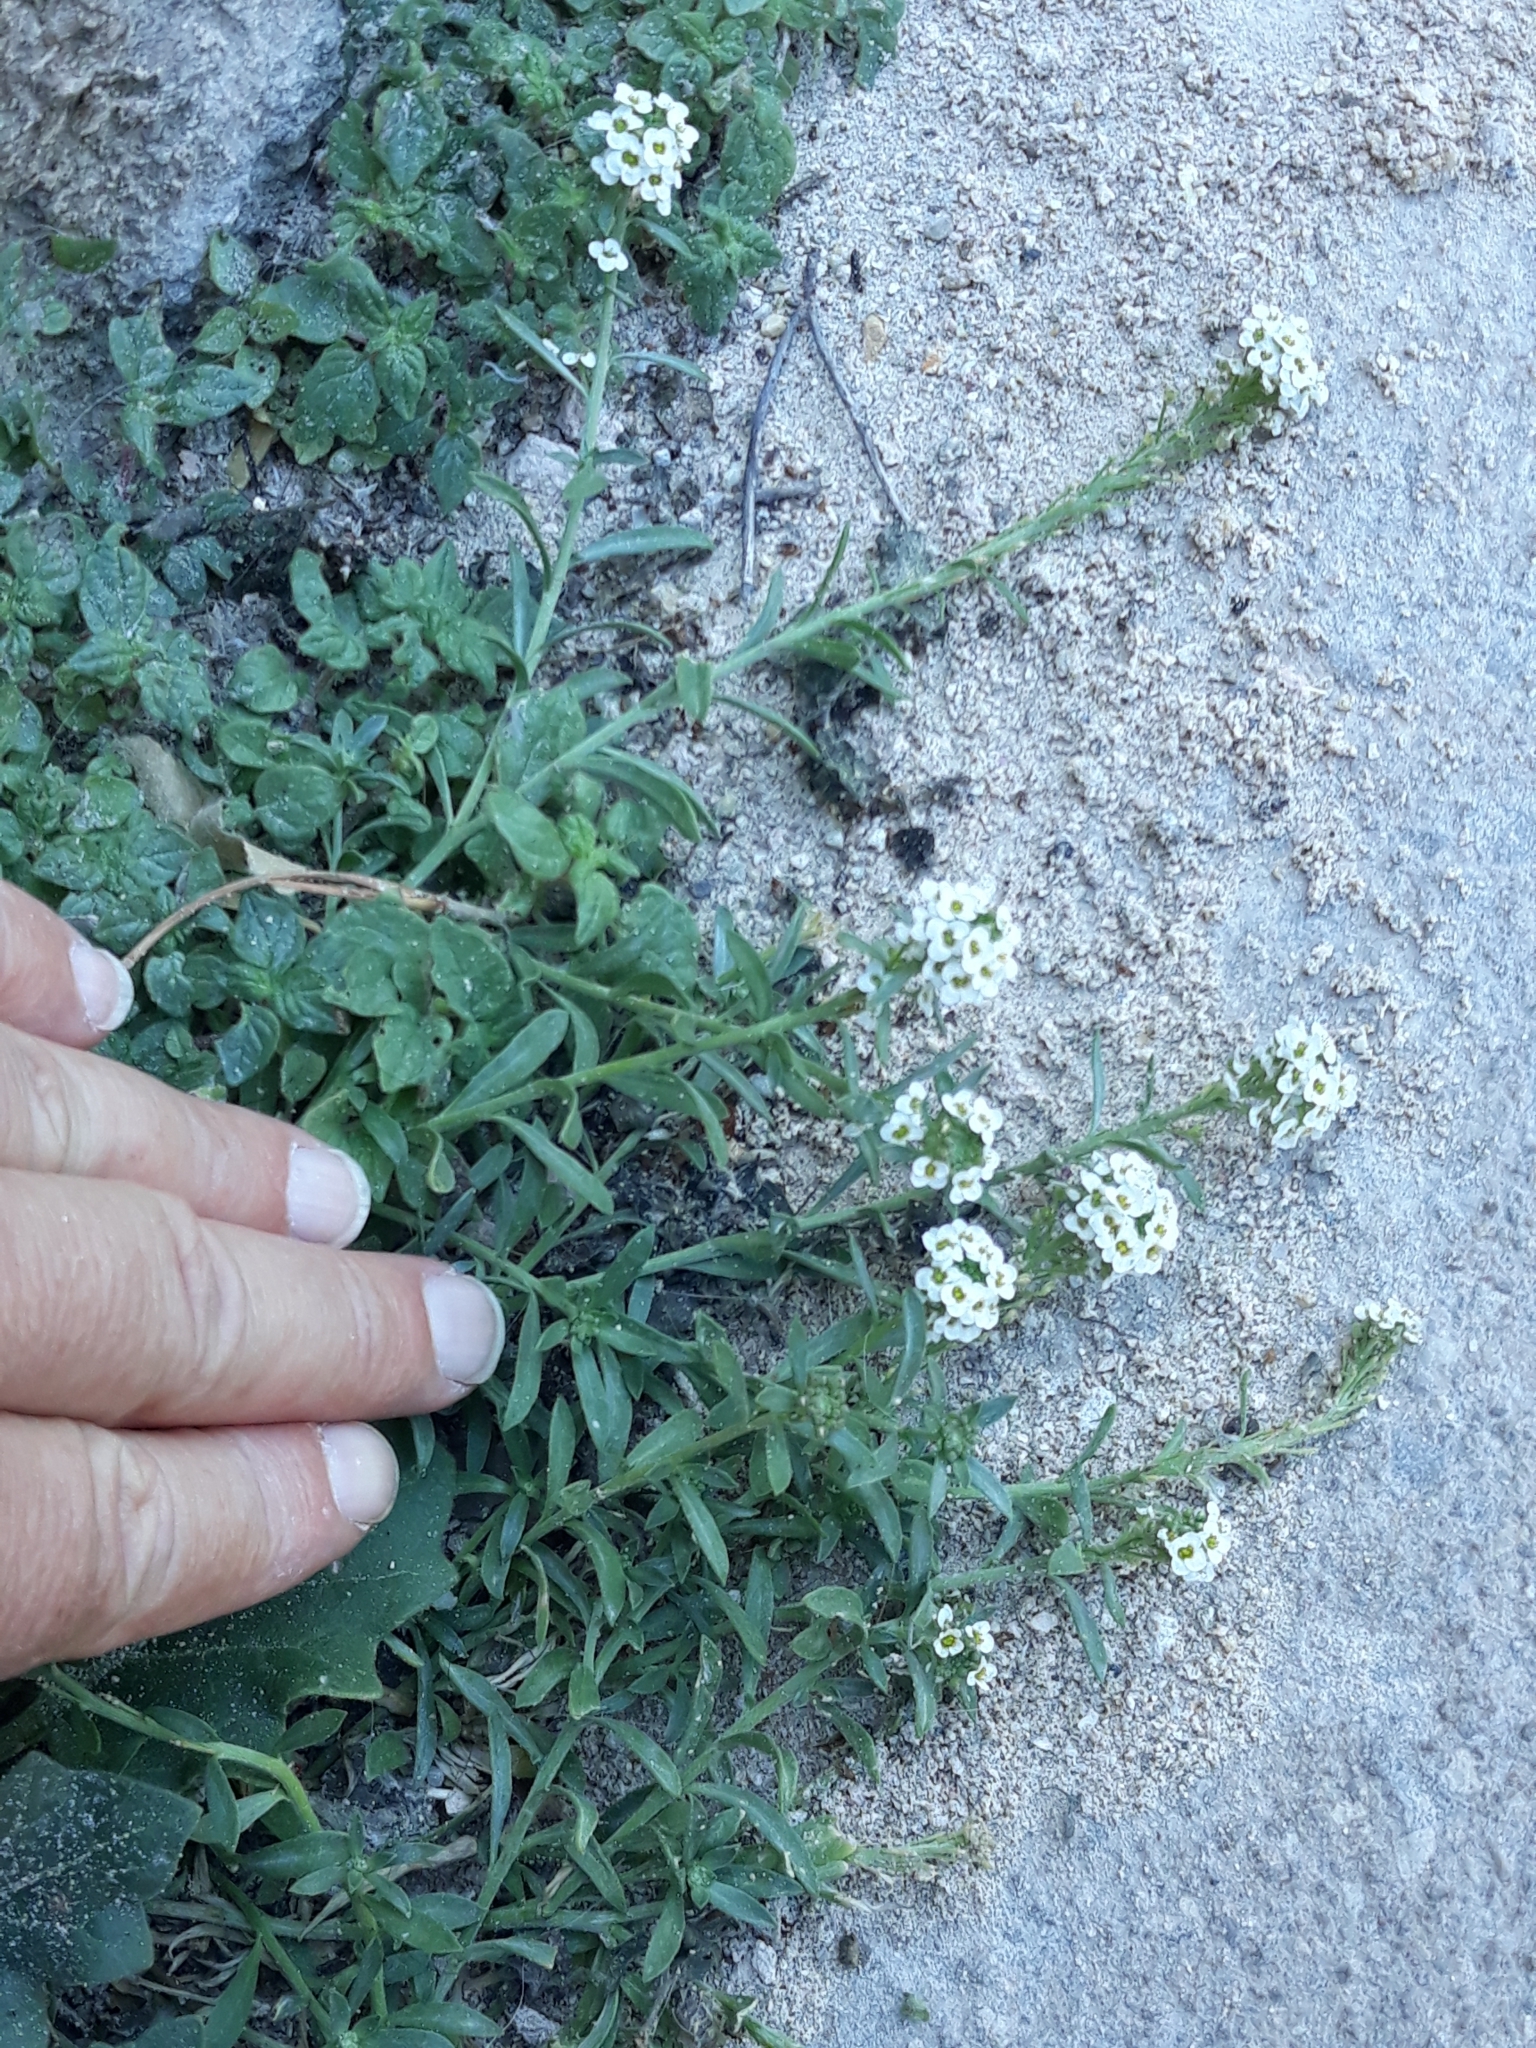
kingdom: Plantae
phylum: Tracheophyta
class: Magnoliopsida
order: Brassicales
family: Brassicaceae
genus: Lobularia
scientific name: Lobularia maritima
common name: Sweet alison
